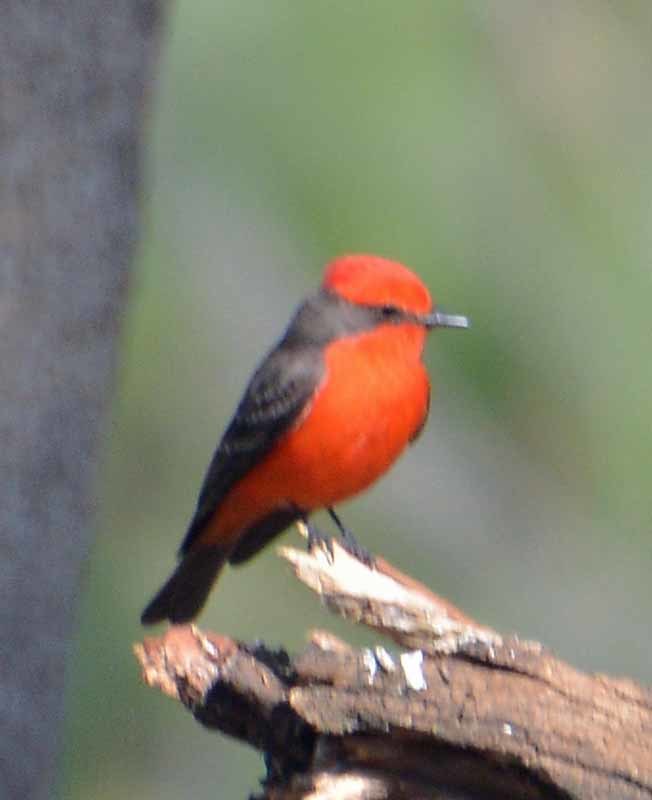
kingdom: Animalia
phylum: Chordata
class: Aves
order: Passeriformes
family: Tyrannidae
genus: Pyrocephalus
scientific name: Pyrocephalus rubinus
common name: Vermilion flycatcher
